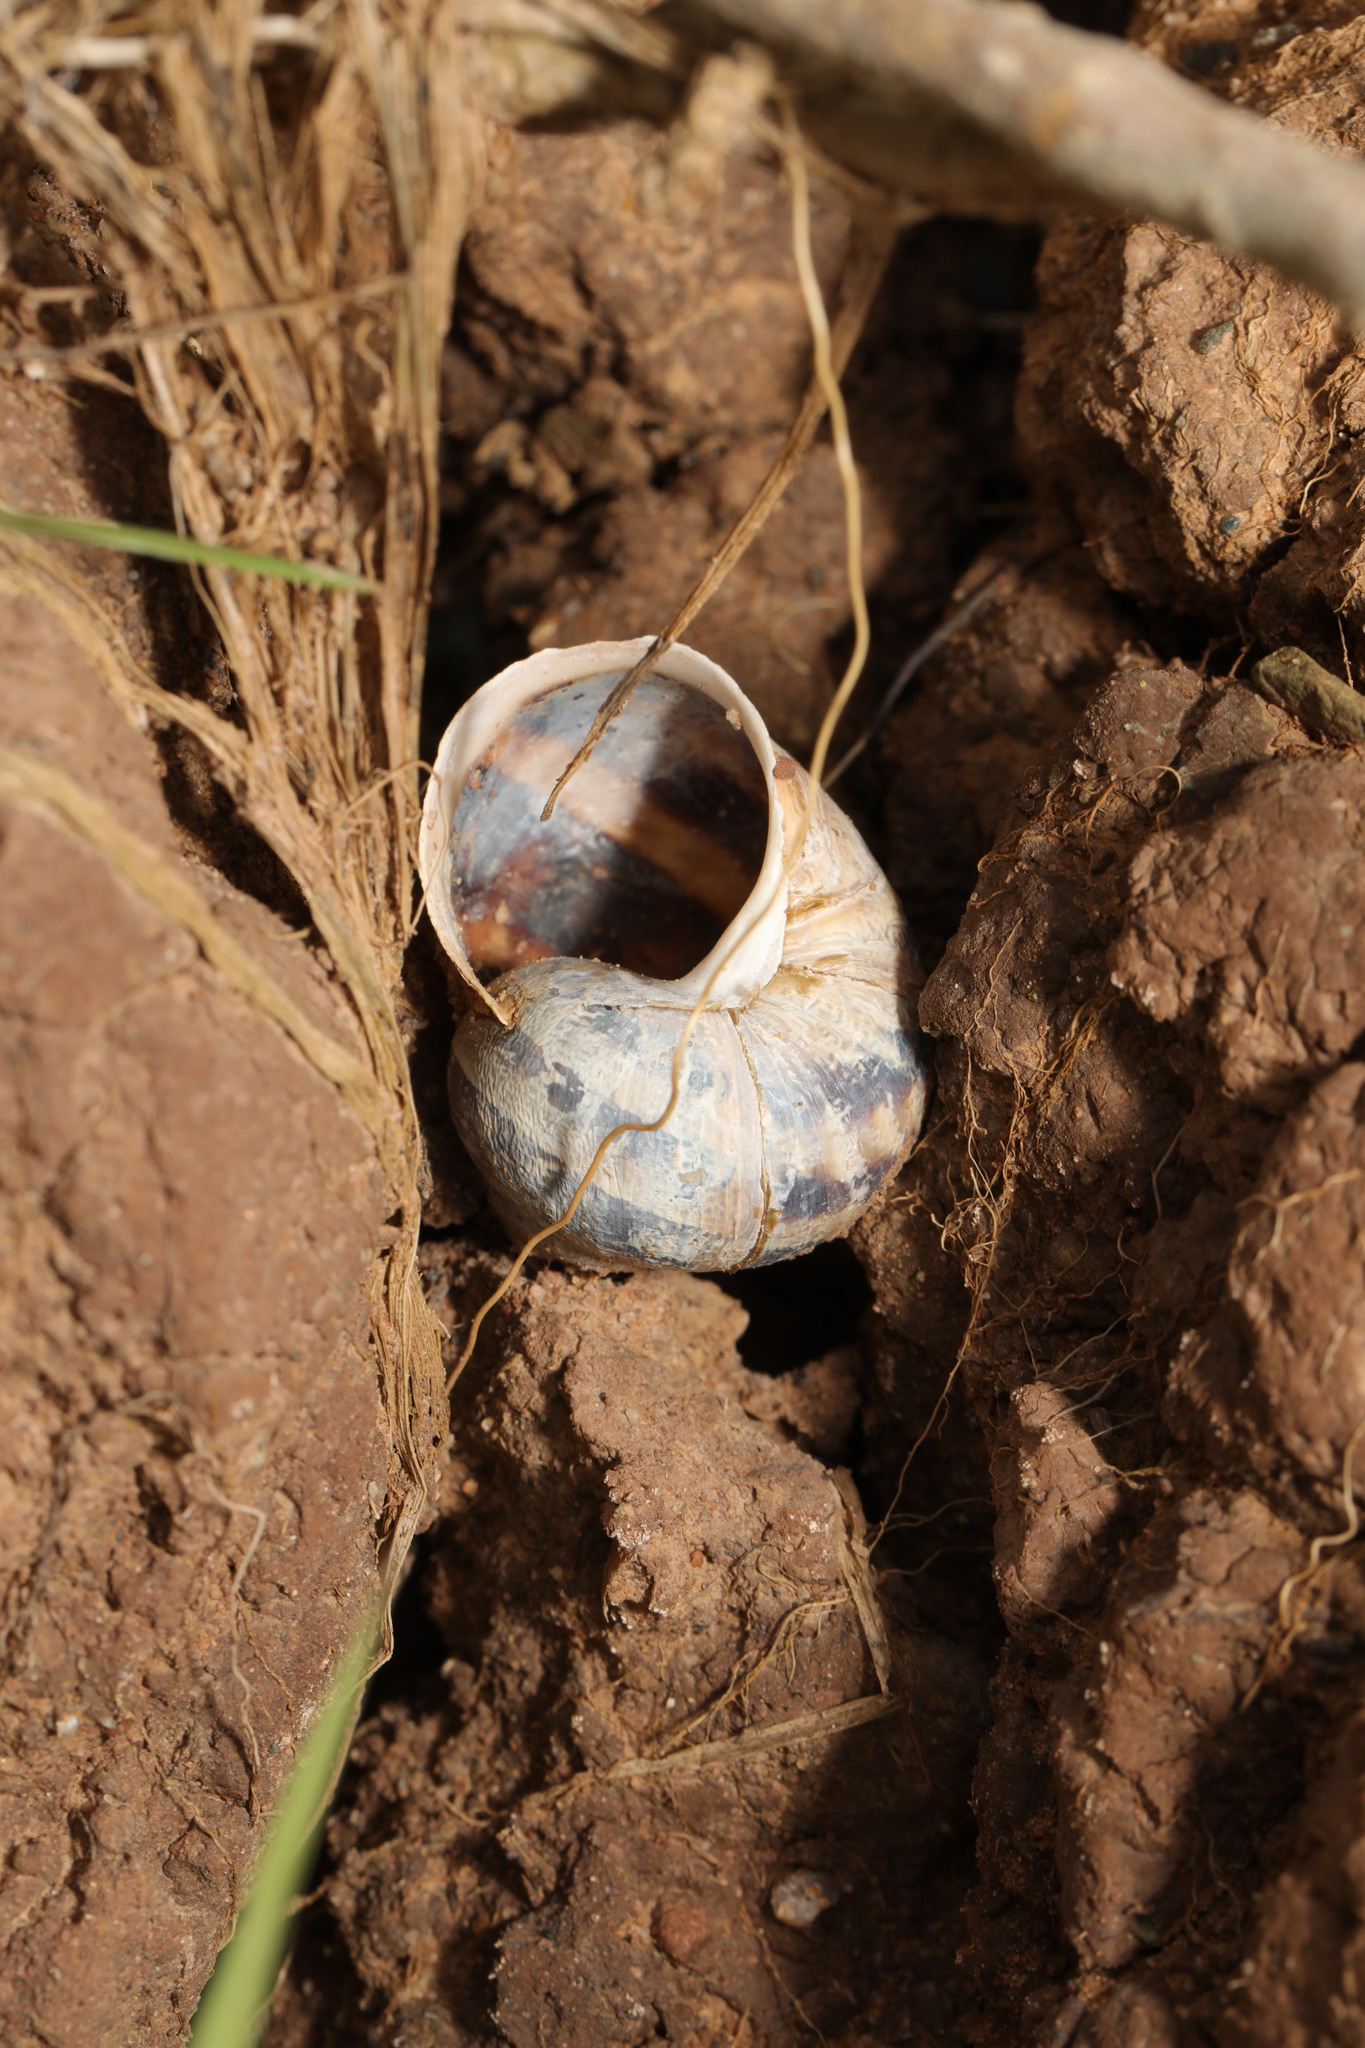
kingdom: Animalia
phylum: Mollusca
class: Gastropoda
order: Stylommatophora
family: Helicidae
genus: Cornu
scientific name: Cornu aspersum
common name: Brown garden snail
